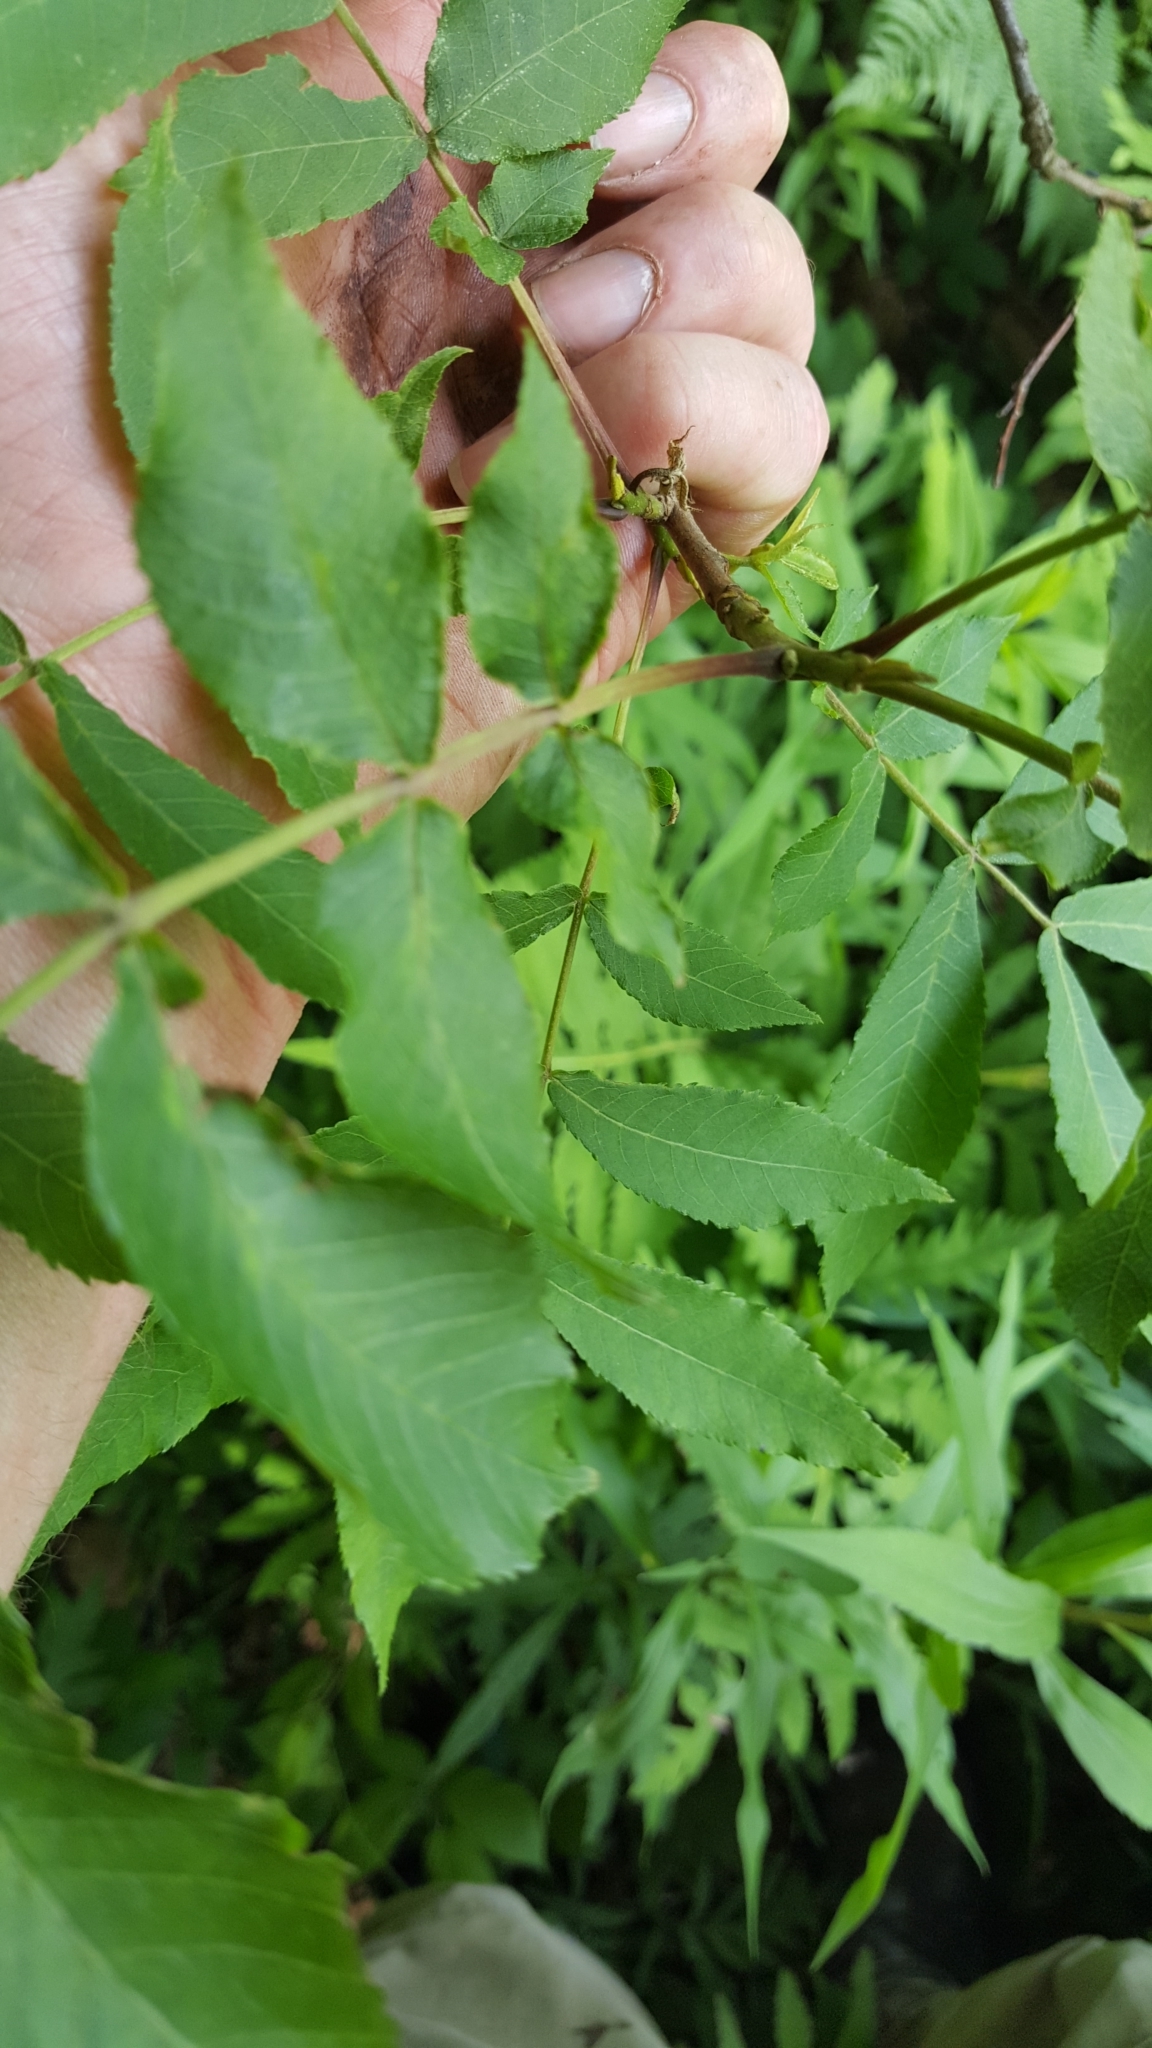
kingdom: Plantae
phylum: Tracheophyta
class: Magnoliopsida
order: Fagales
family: Juglandaceae
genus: Carya
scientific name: Carya cordiformis
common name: Bitternut hickory
